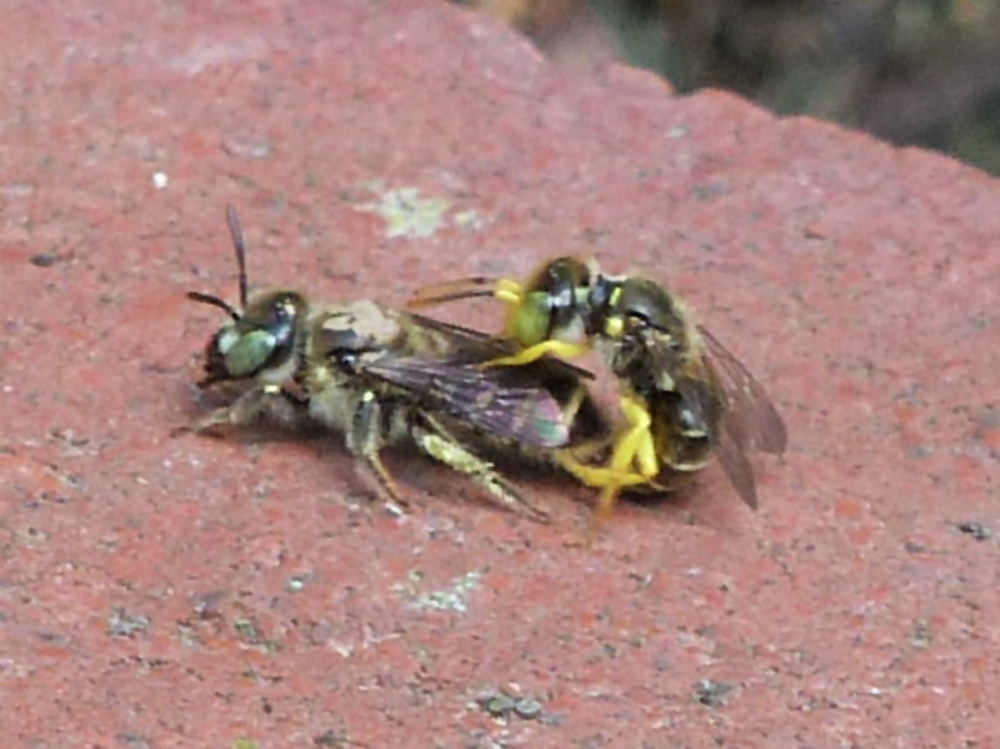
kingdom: Animalia
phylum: Arthropoda
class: Insecta
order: Hymenoptera
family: Andrenidae
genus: Calliopsis
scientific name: Calliopsis andreniformis
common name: Eastern calliopsis bee
